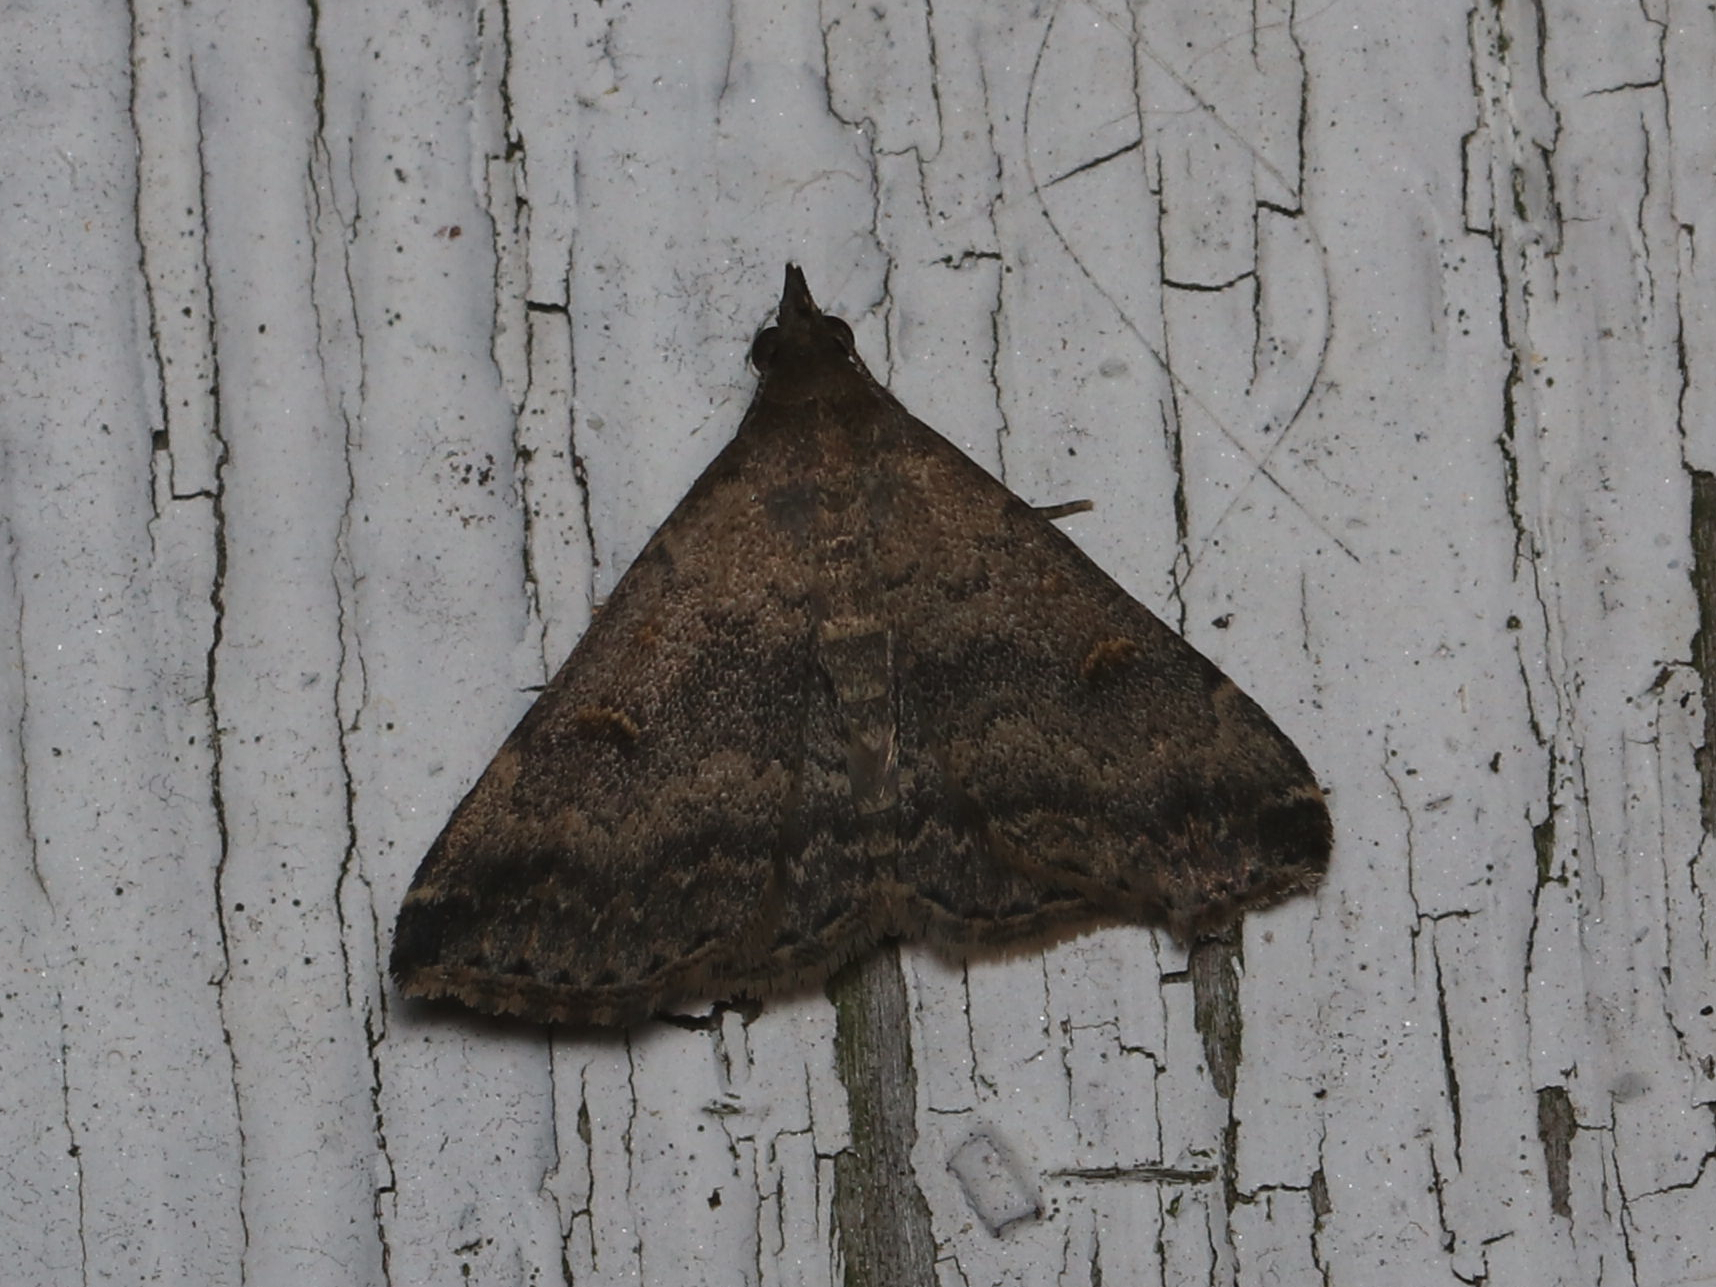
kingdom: Animalia
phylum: Arthropoda
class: Insecta
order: Lepidoptera
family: Erebidae
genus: Tetanolita
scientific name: Tetanolita floridana
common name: Florida tetanolita moth
